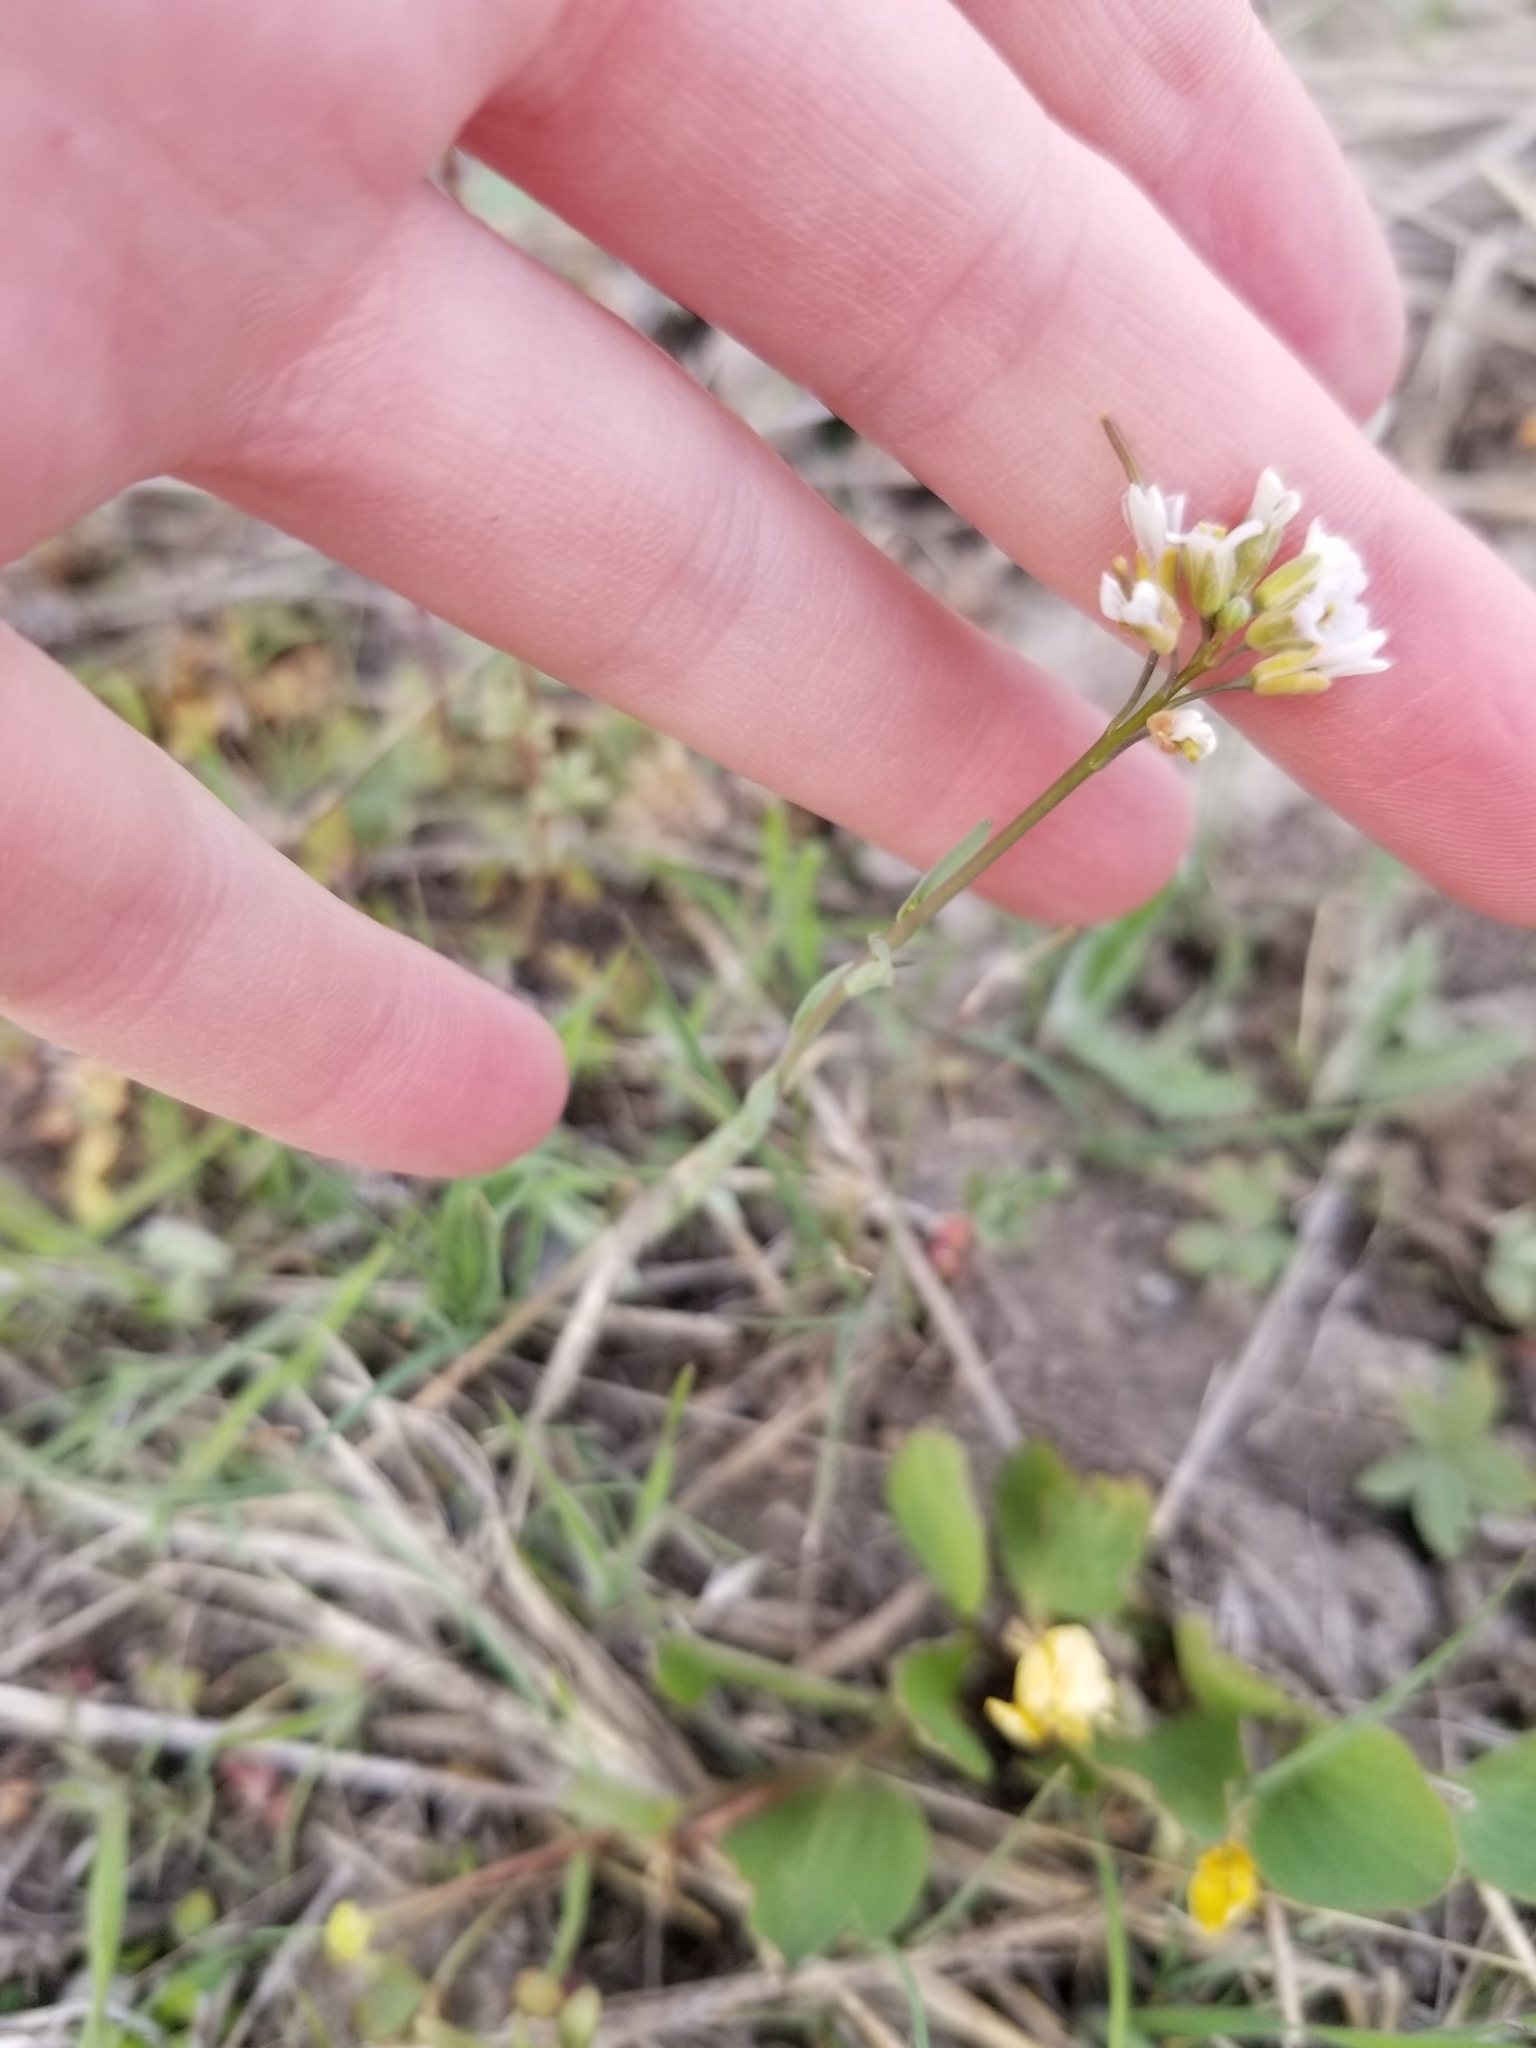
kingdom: Plantae
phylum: Tracheophyta
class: Magnoliopsida
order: Brassicales
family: Brassicaceae
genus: Boechera
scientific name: Boechera retrofracta
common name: Dangling suncress
